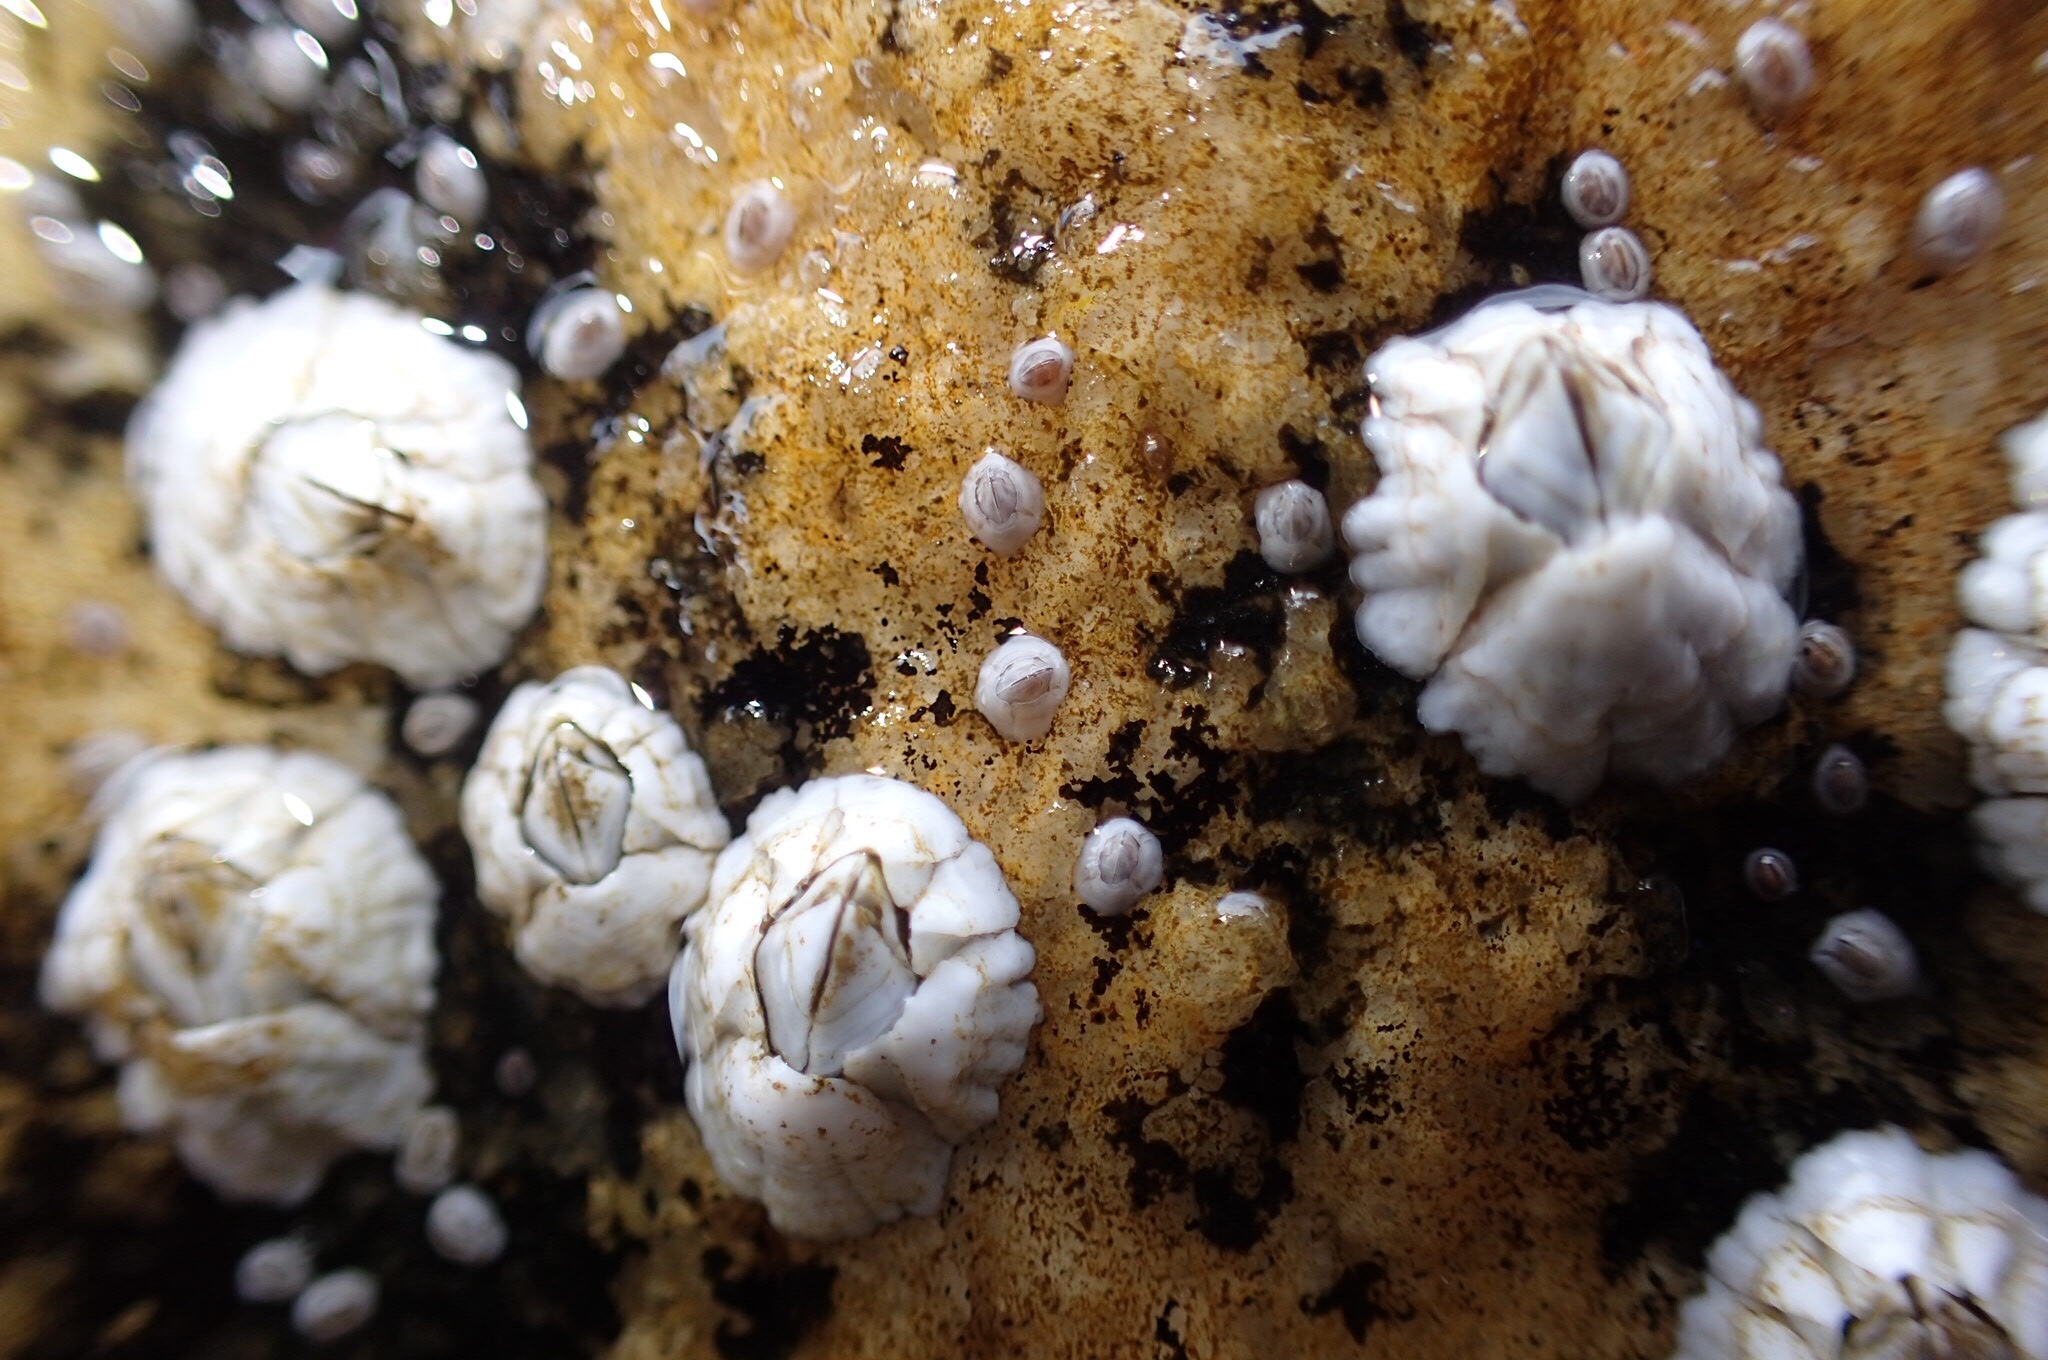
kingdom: Animalia
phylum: Arthropoda
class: Maxillopoda
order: Sessilia
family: Archaeobalanidae
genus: Semibalanus
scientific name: Semibalanus balanoides
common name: Acorn barnacle
